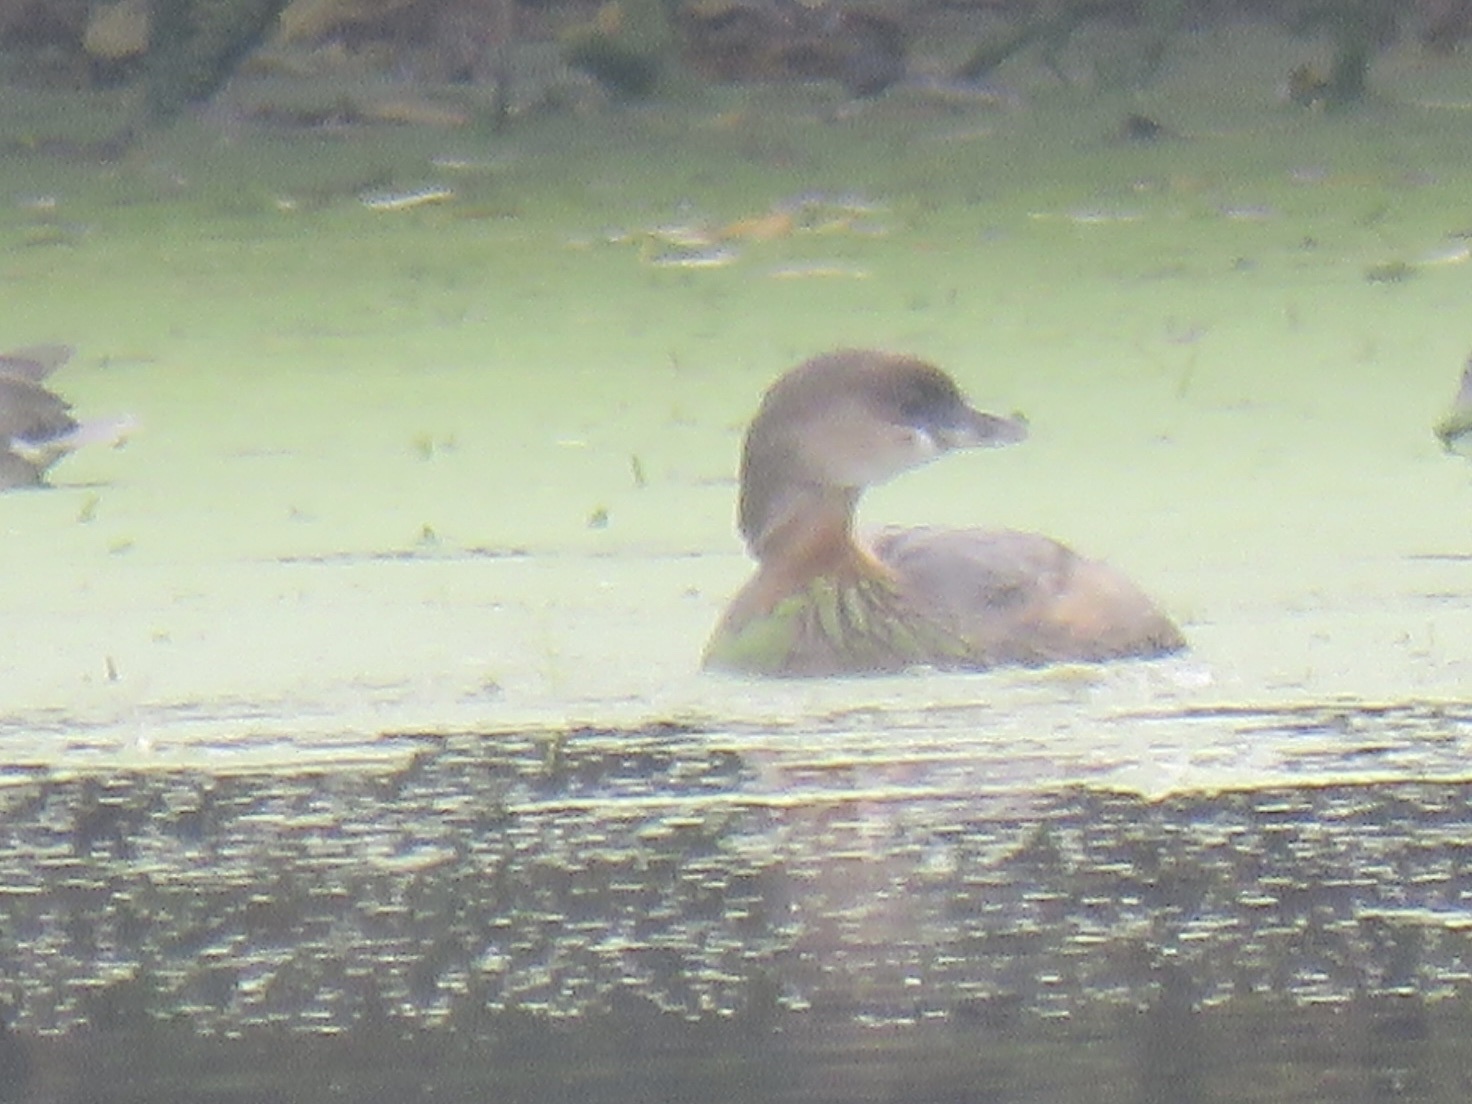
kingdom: Animalia
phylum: Chordata
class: Aves
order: Podicipediformes
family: Podicipedidae
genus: Podilymbus
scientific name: Podilymbus podiceps
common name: Pied-billed grebe
